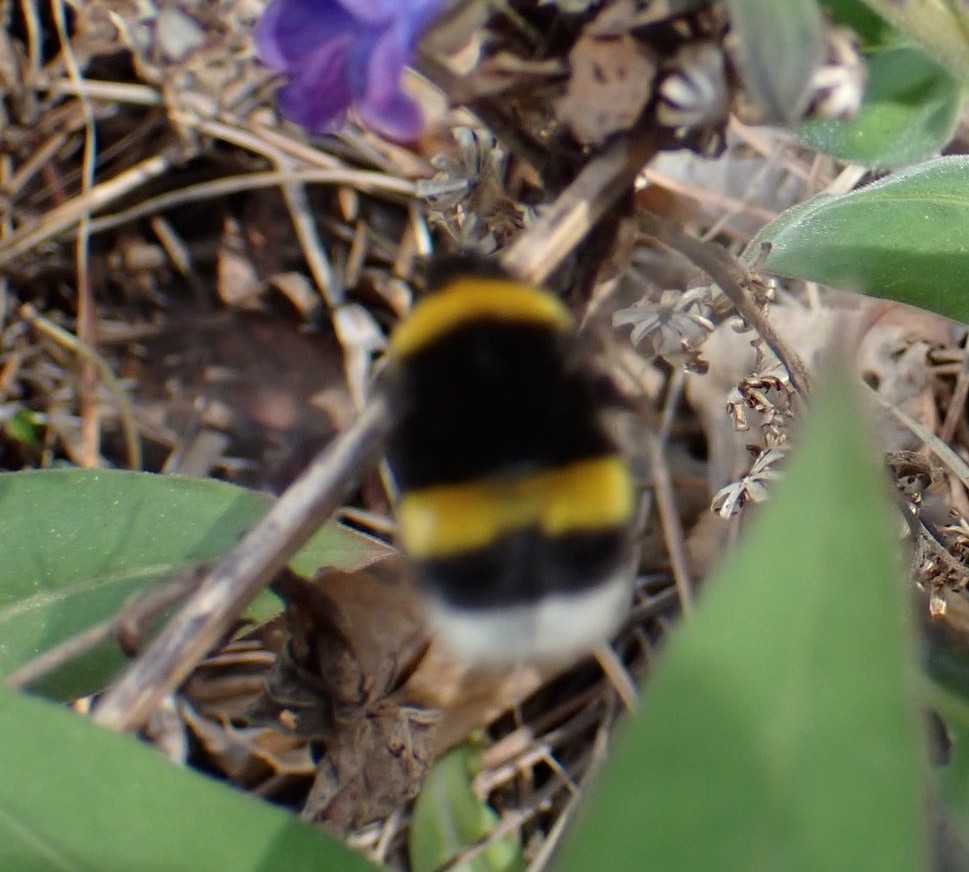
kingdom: Animalia
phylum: Arthropoda
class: Insecta
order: Hymenoptera
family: Apidae
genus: Bombus
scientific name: Bombus
